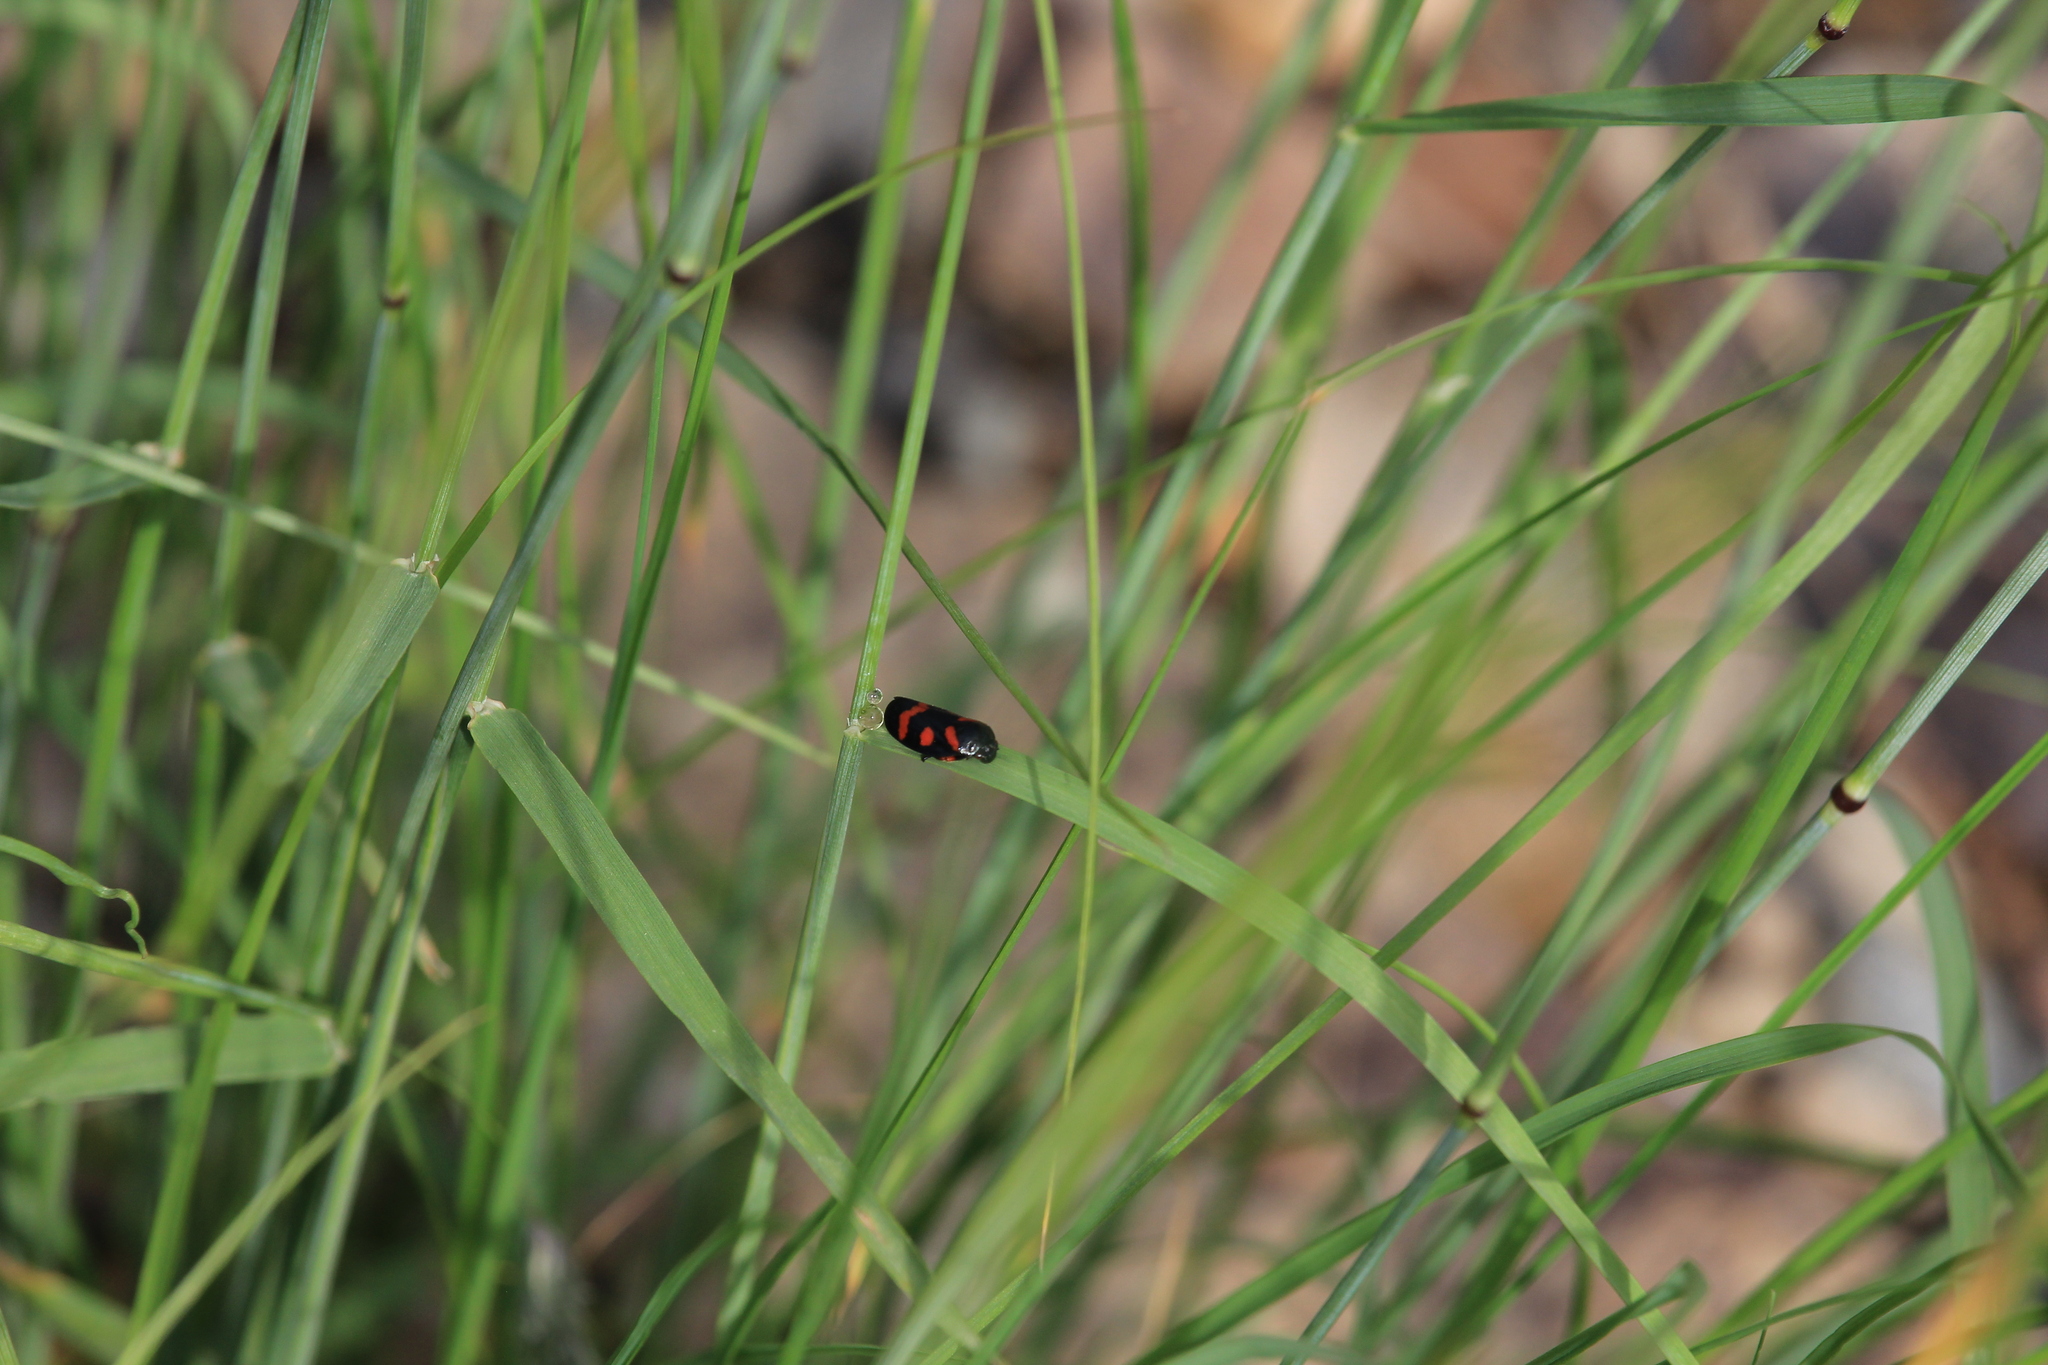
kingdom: Animalia
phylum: Arthropoda
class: Insecta
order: Hemiptera
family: Cercopidae
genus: Cercopis
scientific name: Cercopis intermedia
